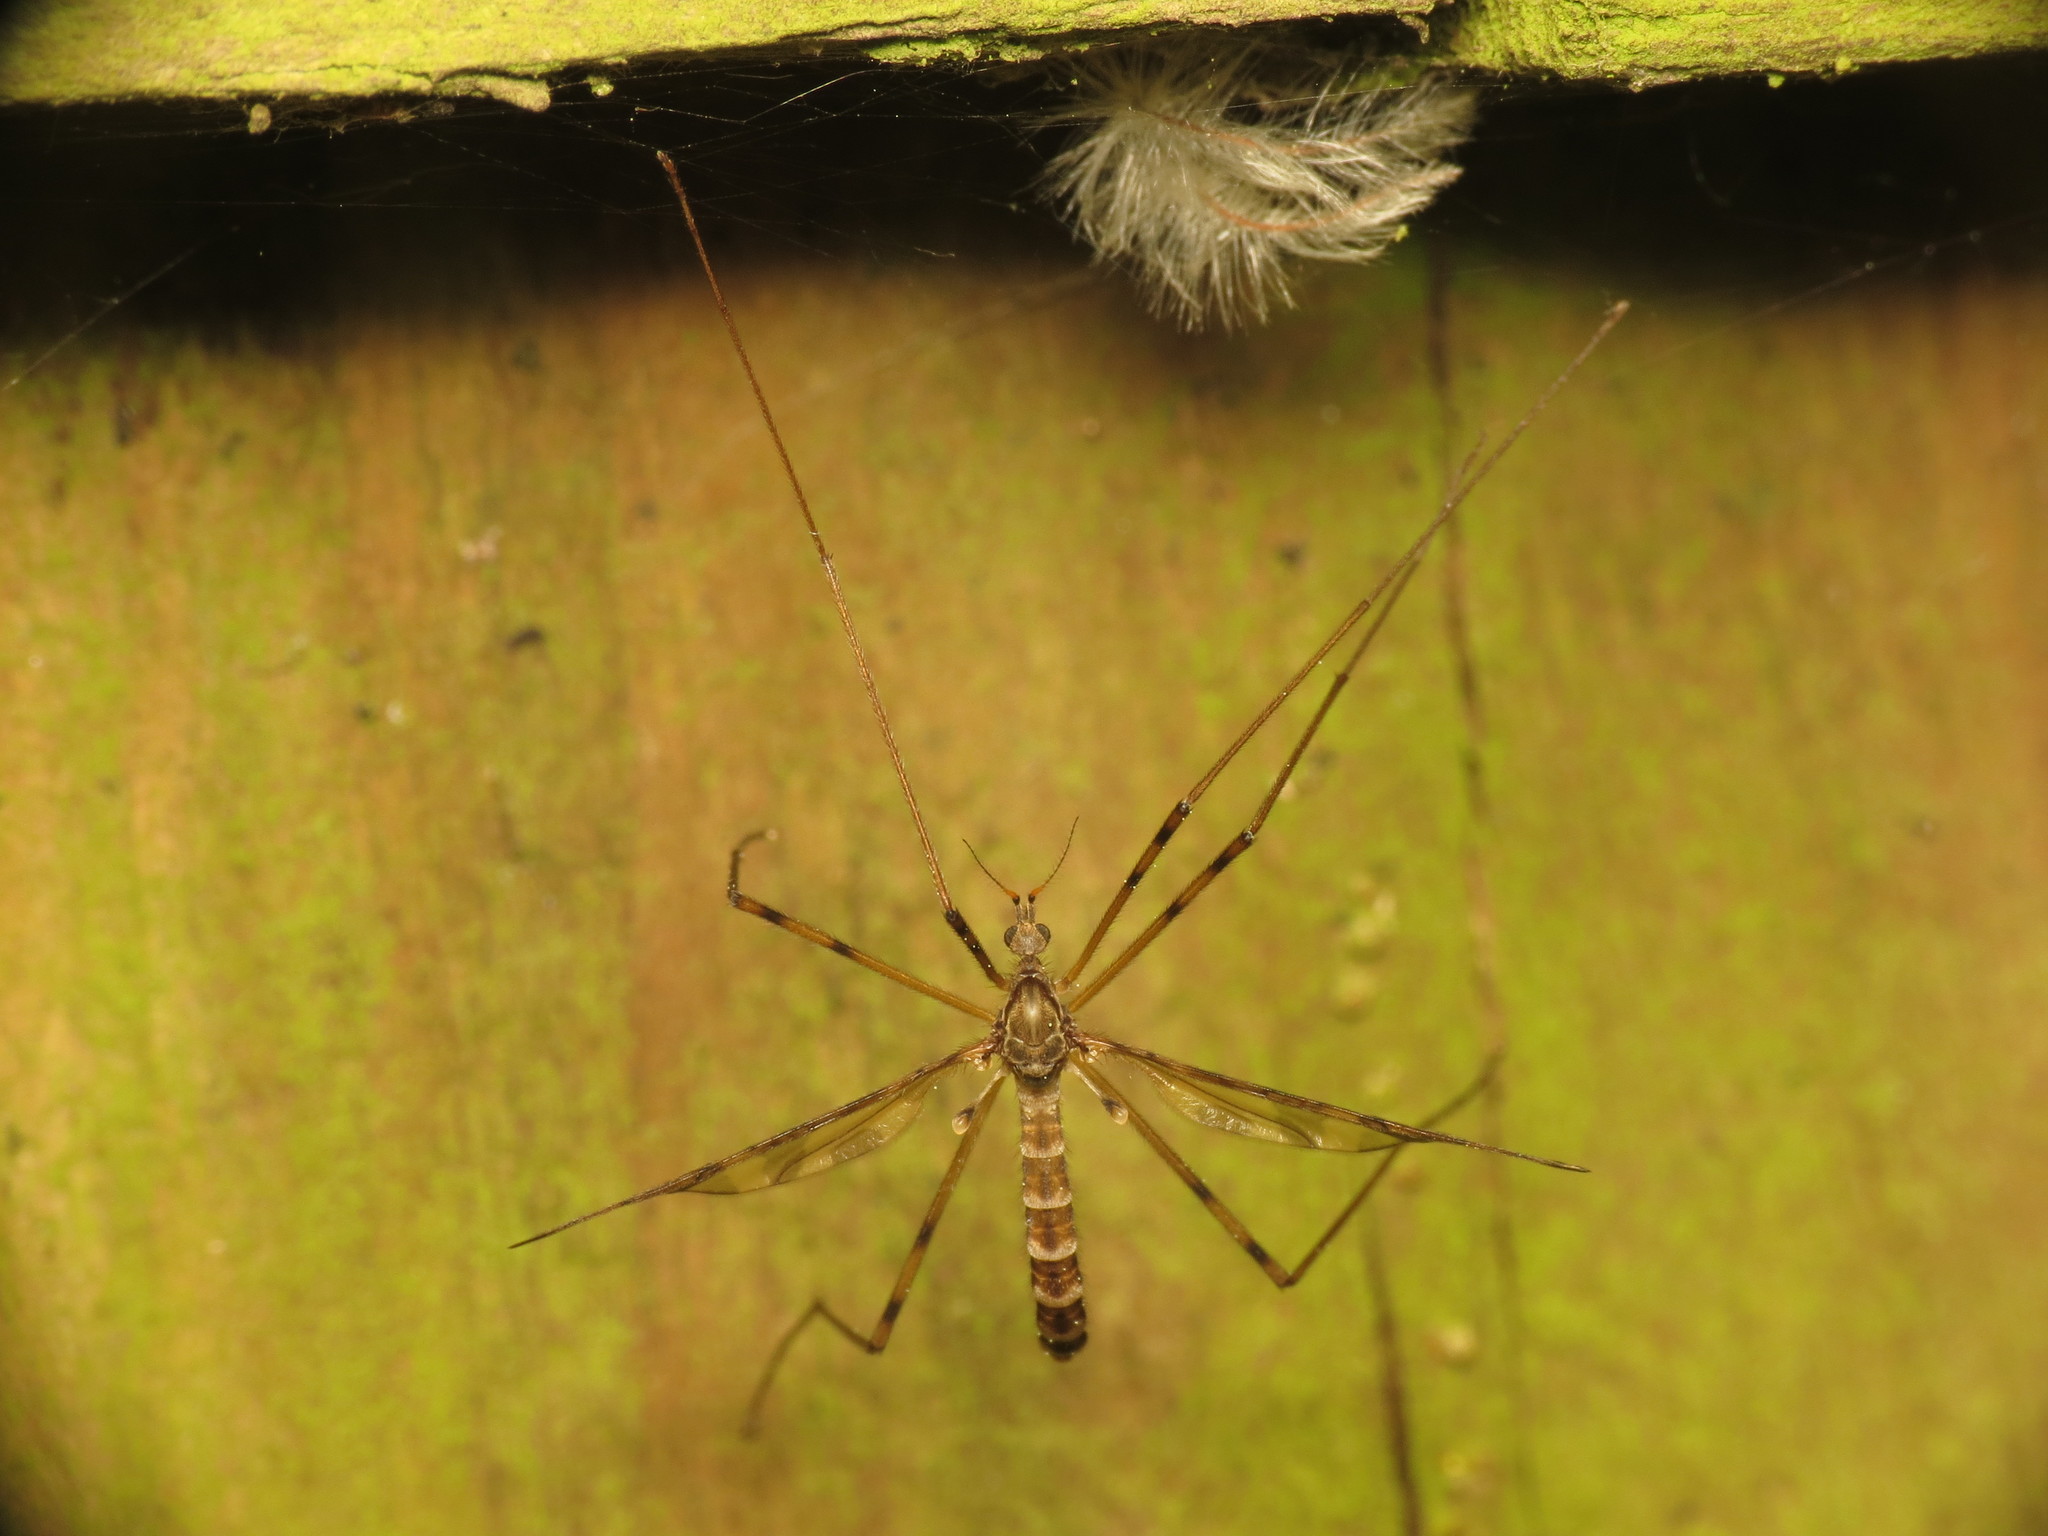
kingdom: Animalia
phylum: Arthropoda
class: Insecta
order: Diptera
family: Limoniidae
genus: Epiphragma
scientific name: Epiphragma ocellare
